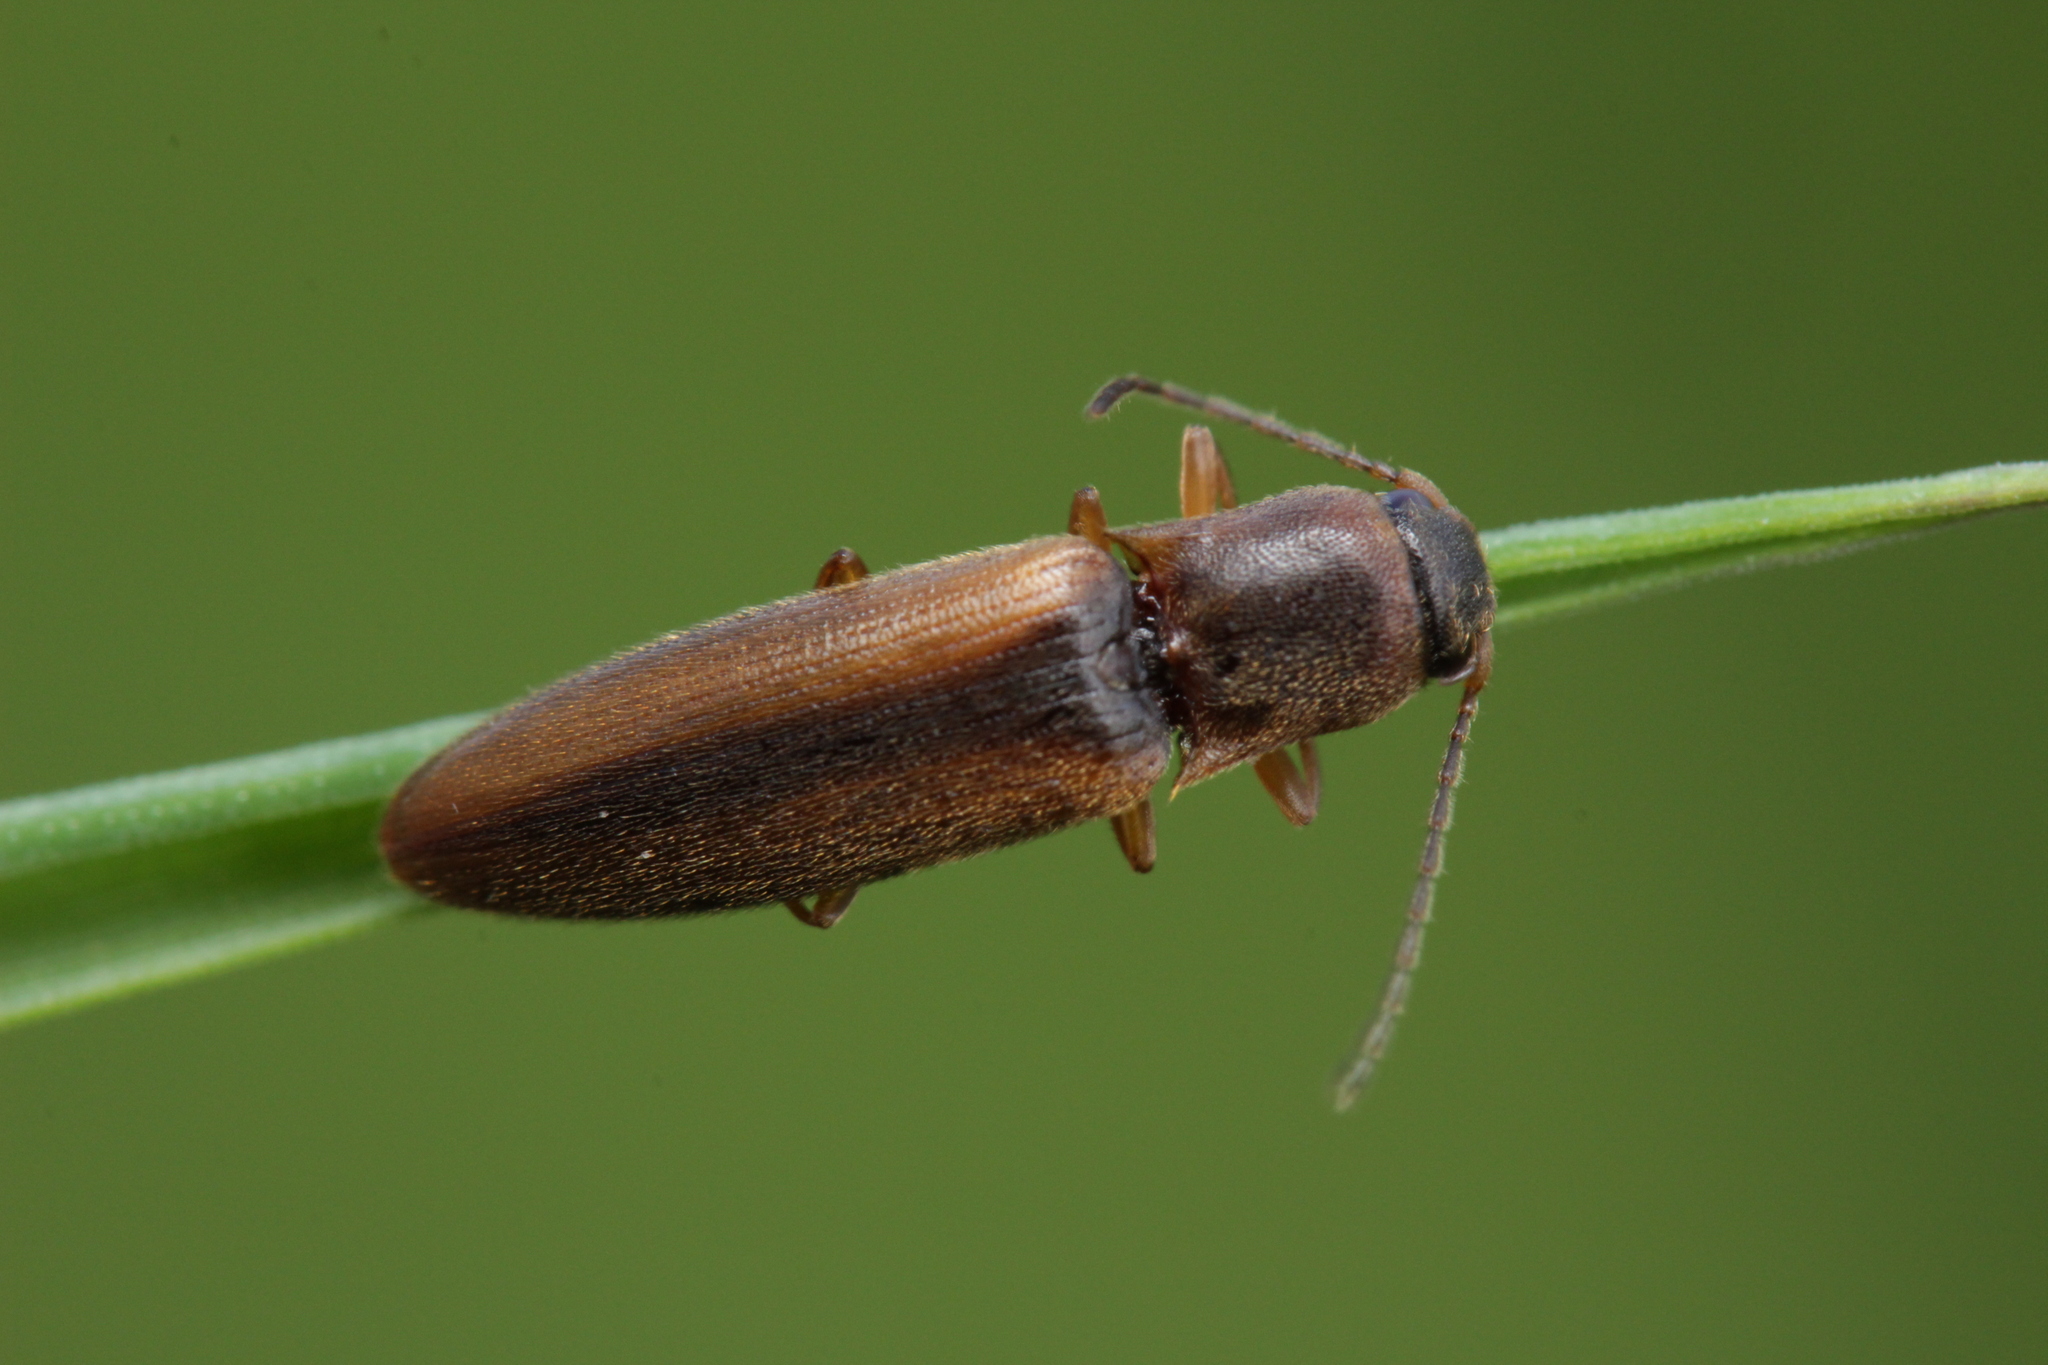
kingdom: Animalia
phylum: Arthropoda
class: Insecta
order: Coleoptera
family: Elateridae
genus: Dalopius
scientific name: Dalopius marginatus
